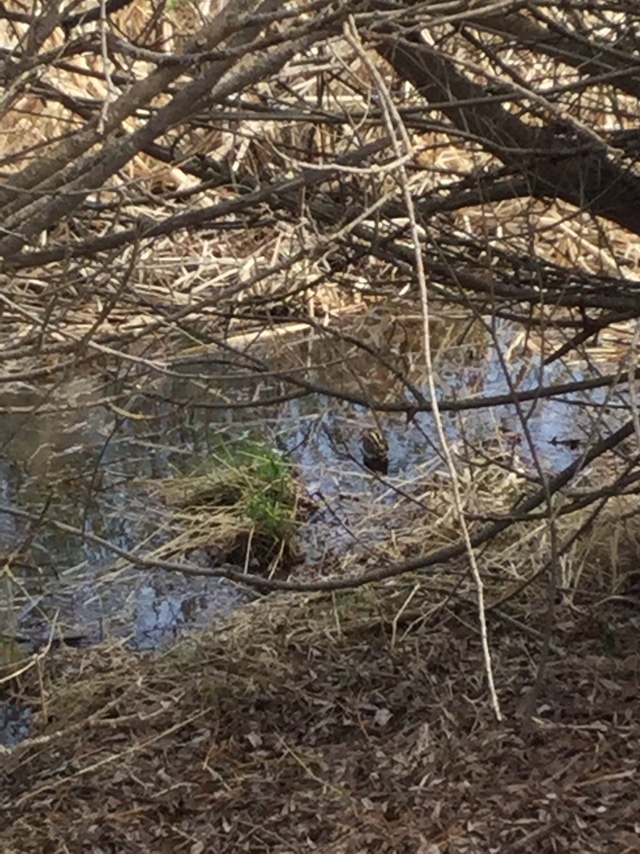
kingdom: Animalia
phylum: Chordata
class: Aves
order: Charadriiformes
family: Scolopacidae
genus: Gallinago
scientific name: Gallinago delicata
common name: Wilson's snipe
